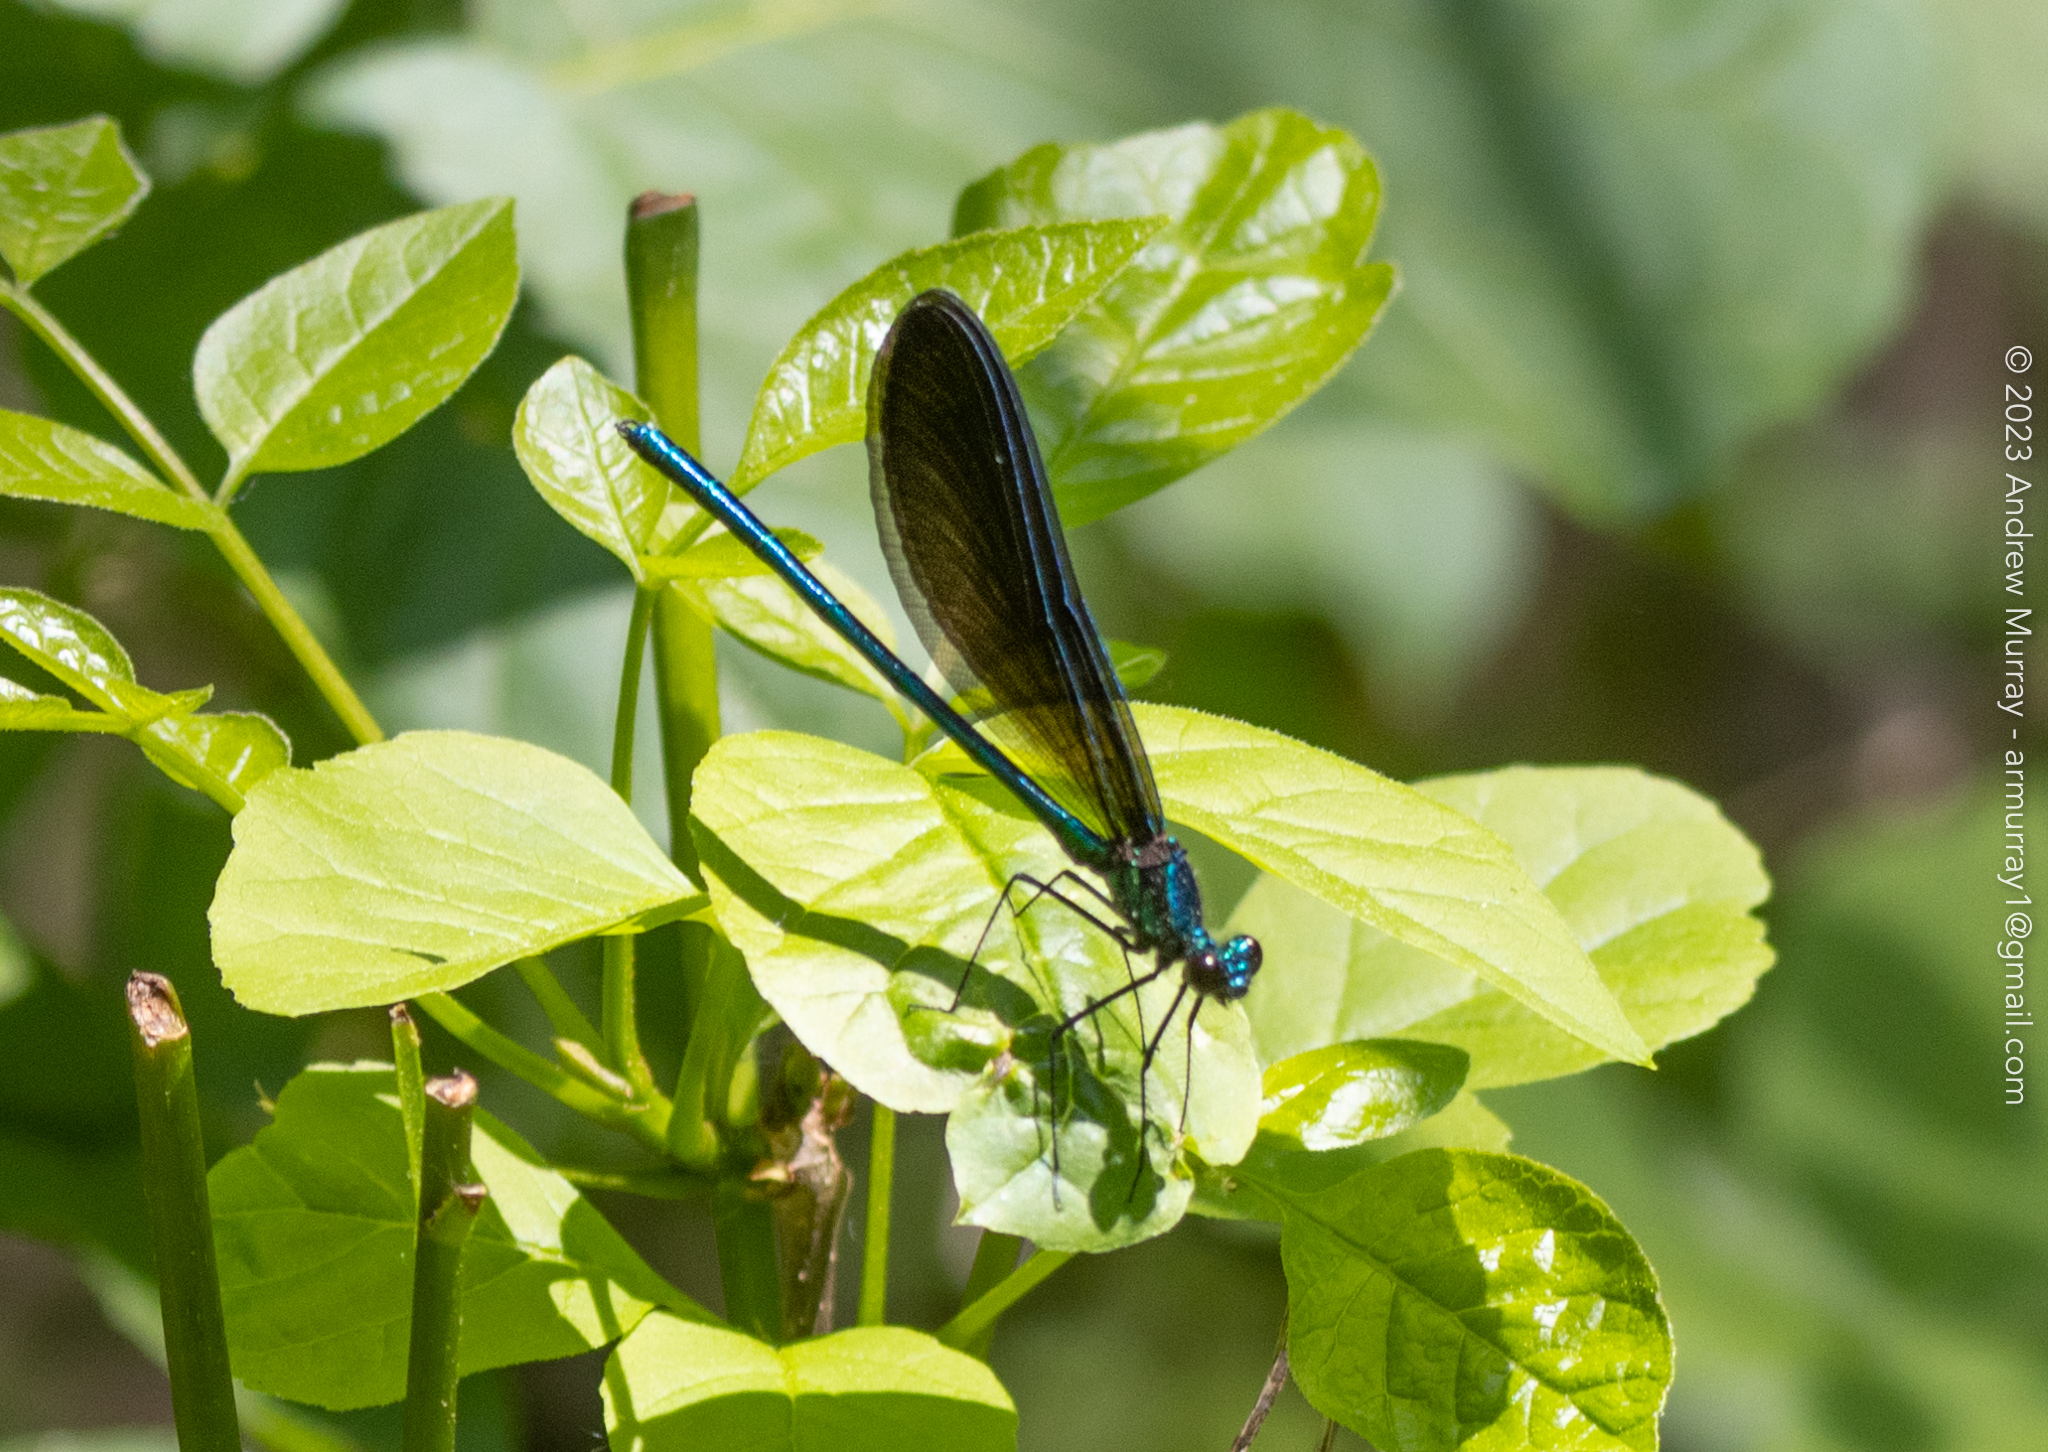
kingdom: Animalia
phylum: Arthropoda
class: Insecta
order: Odonata
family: Calopterygidae
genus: Calopteryx
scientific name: Calopteryx maculata
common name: Ebony jewelwing
